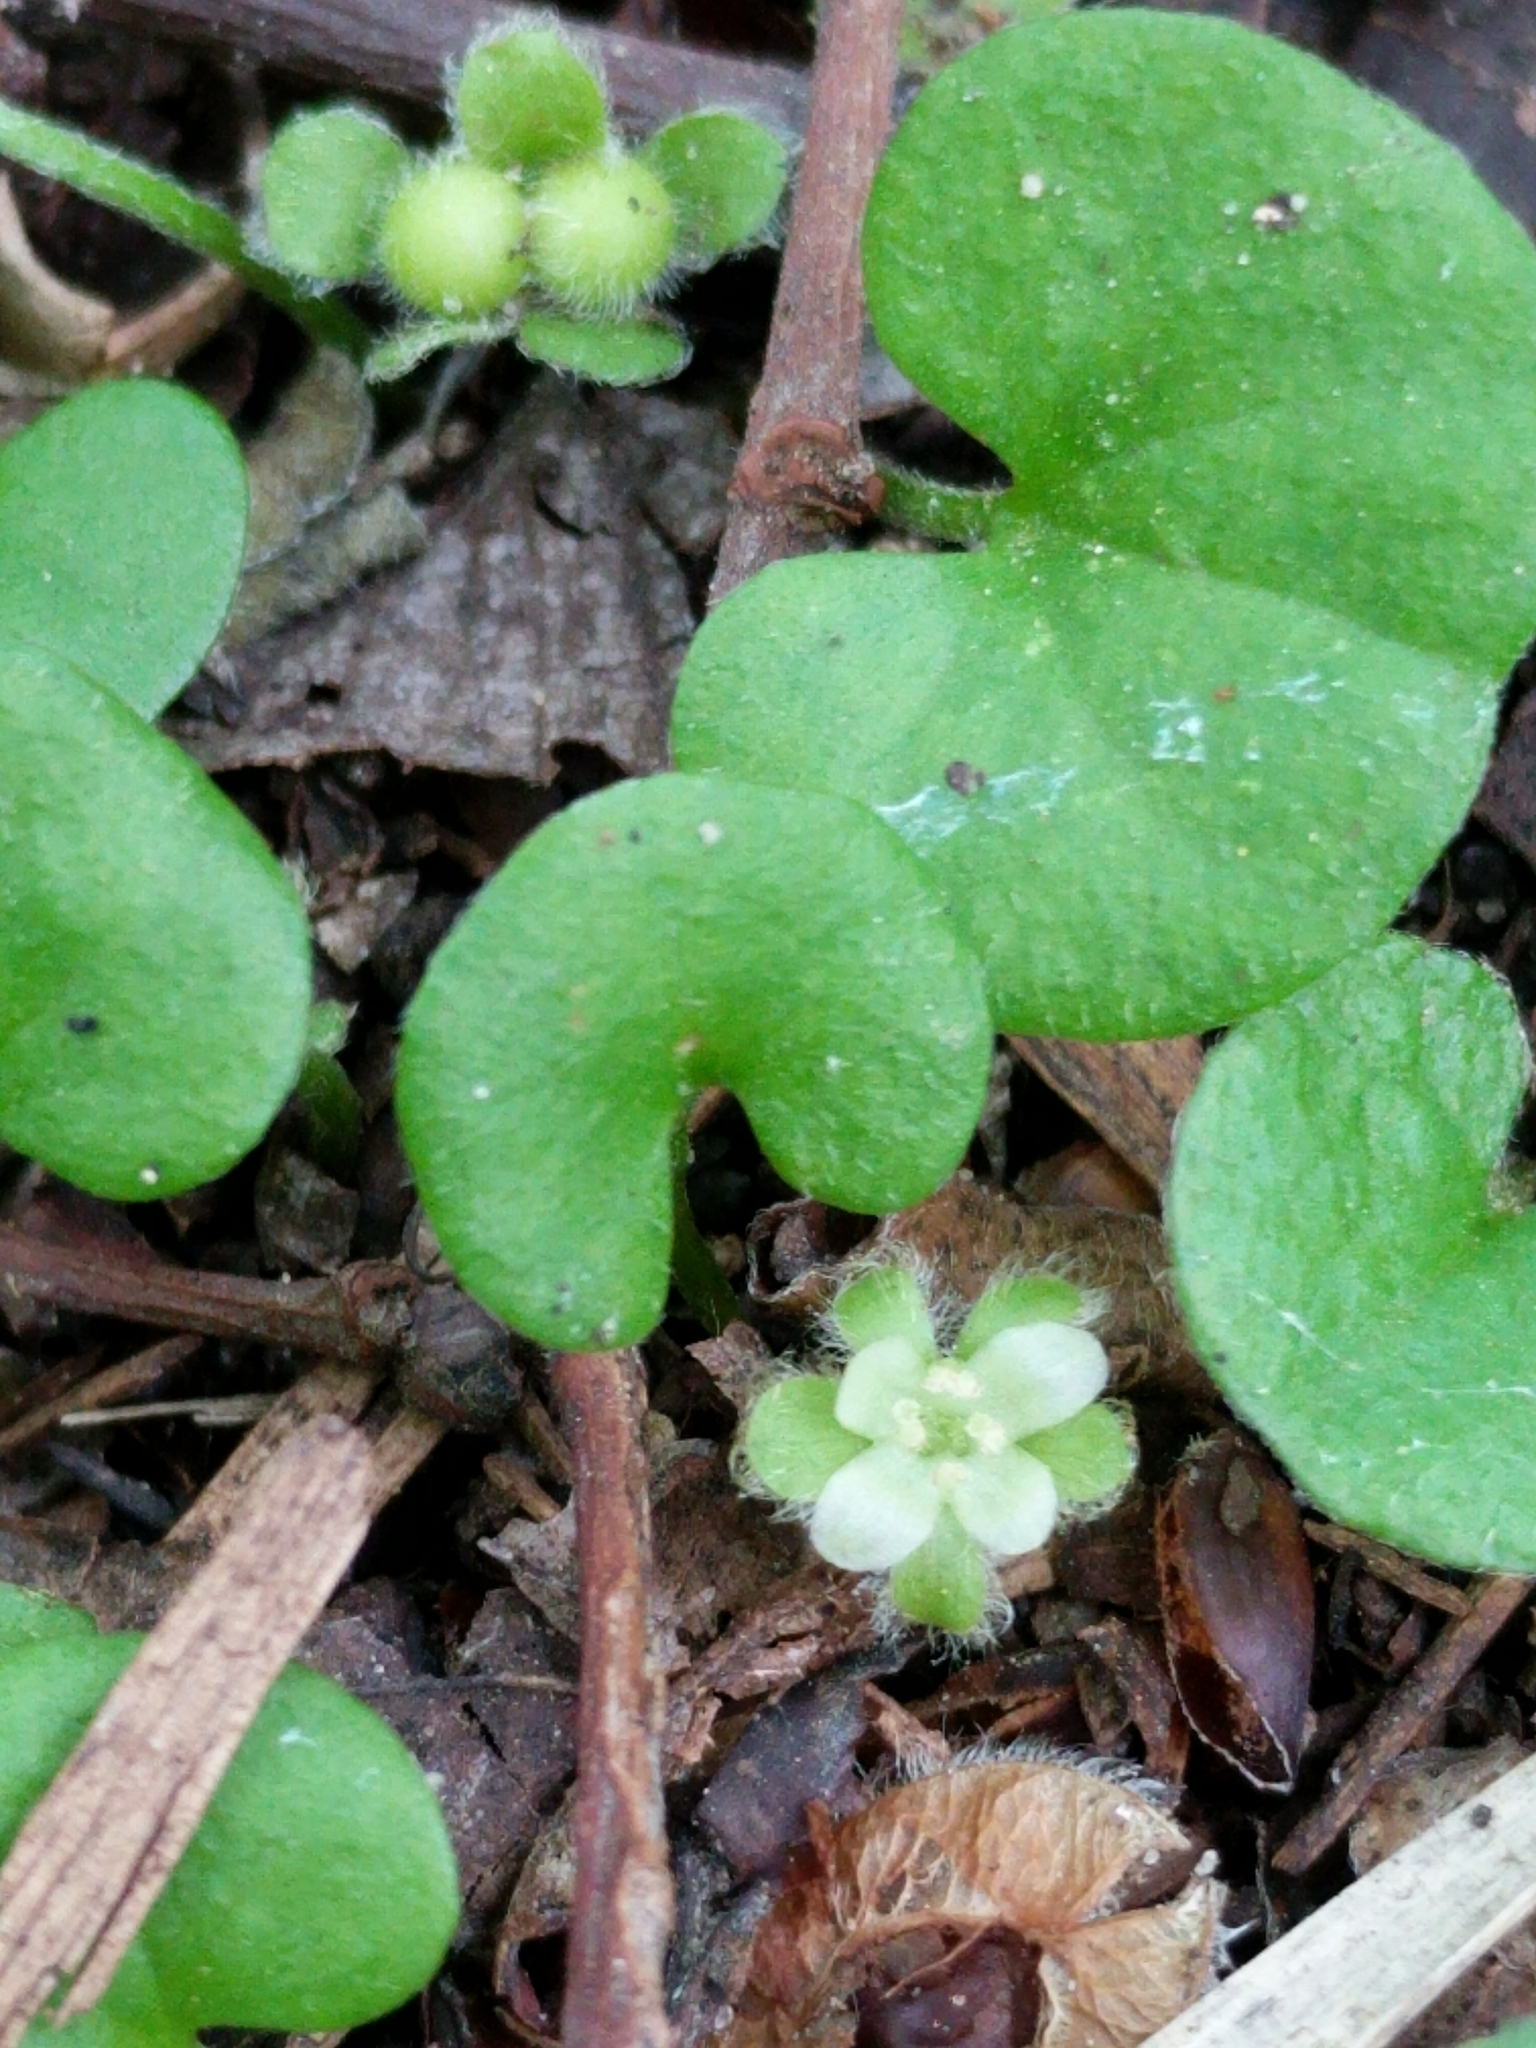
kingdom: Plantae
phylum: Tracheophyta
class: Magnoliopsida
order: Solanales
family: Convolvulaceae
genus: Dichondra
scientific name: Dichondra carolinensis
